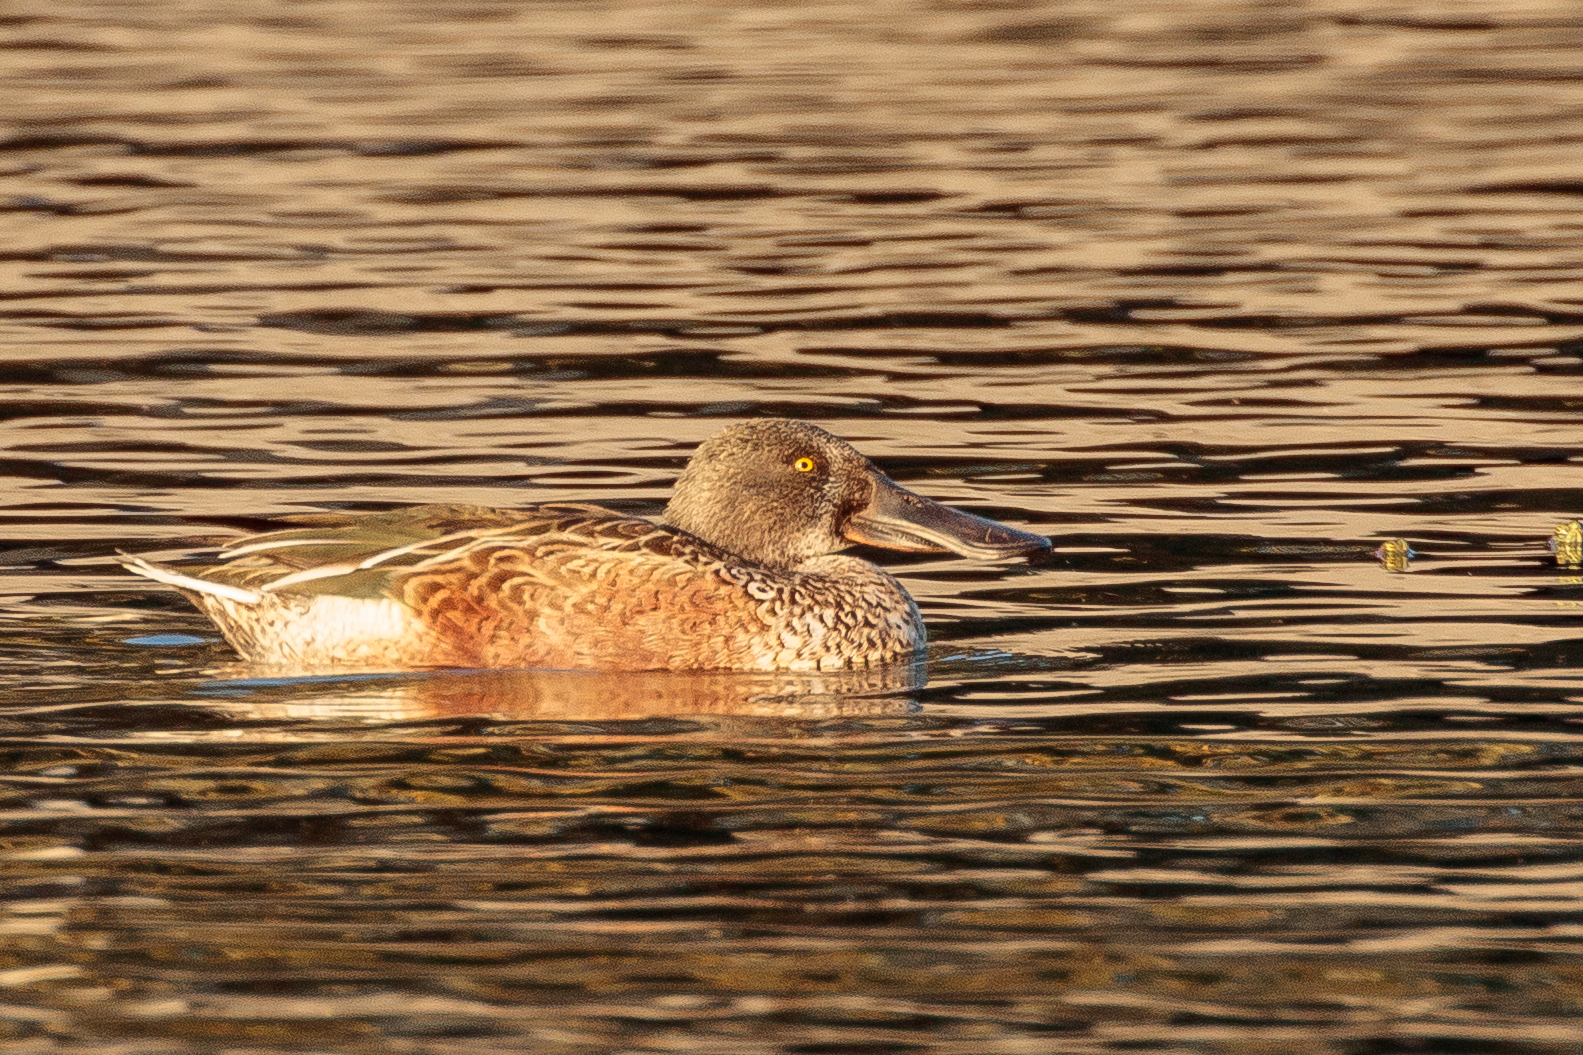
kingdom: Animalia
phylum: Chordata
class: Aves
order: Anseriformes
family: Anatidae
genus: Spatula
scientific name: Spatula clypeata
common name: Northern shoveler
